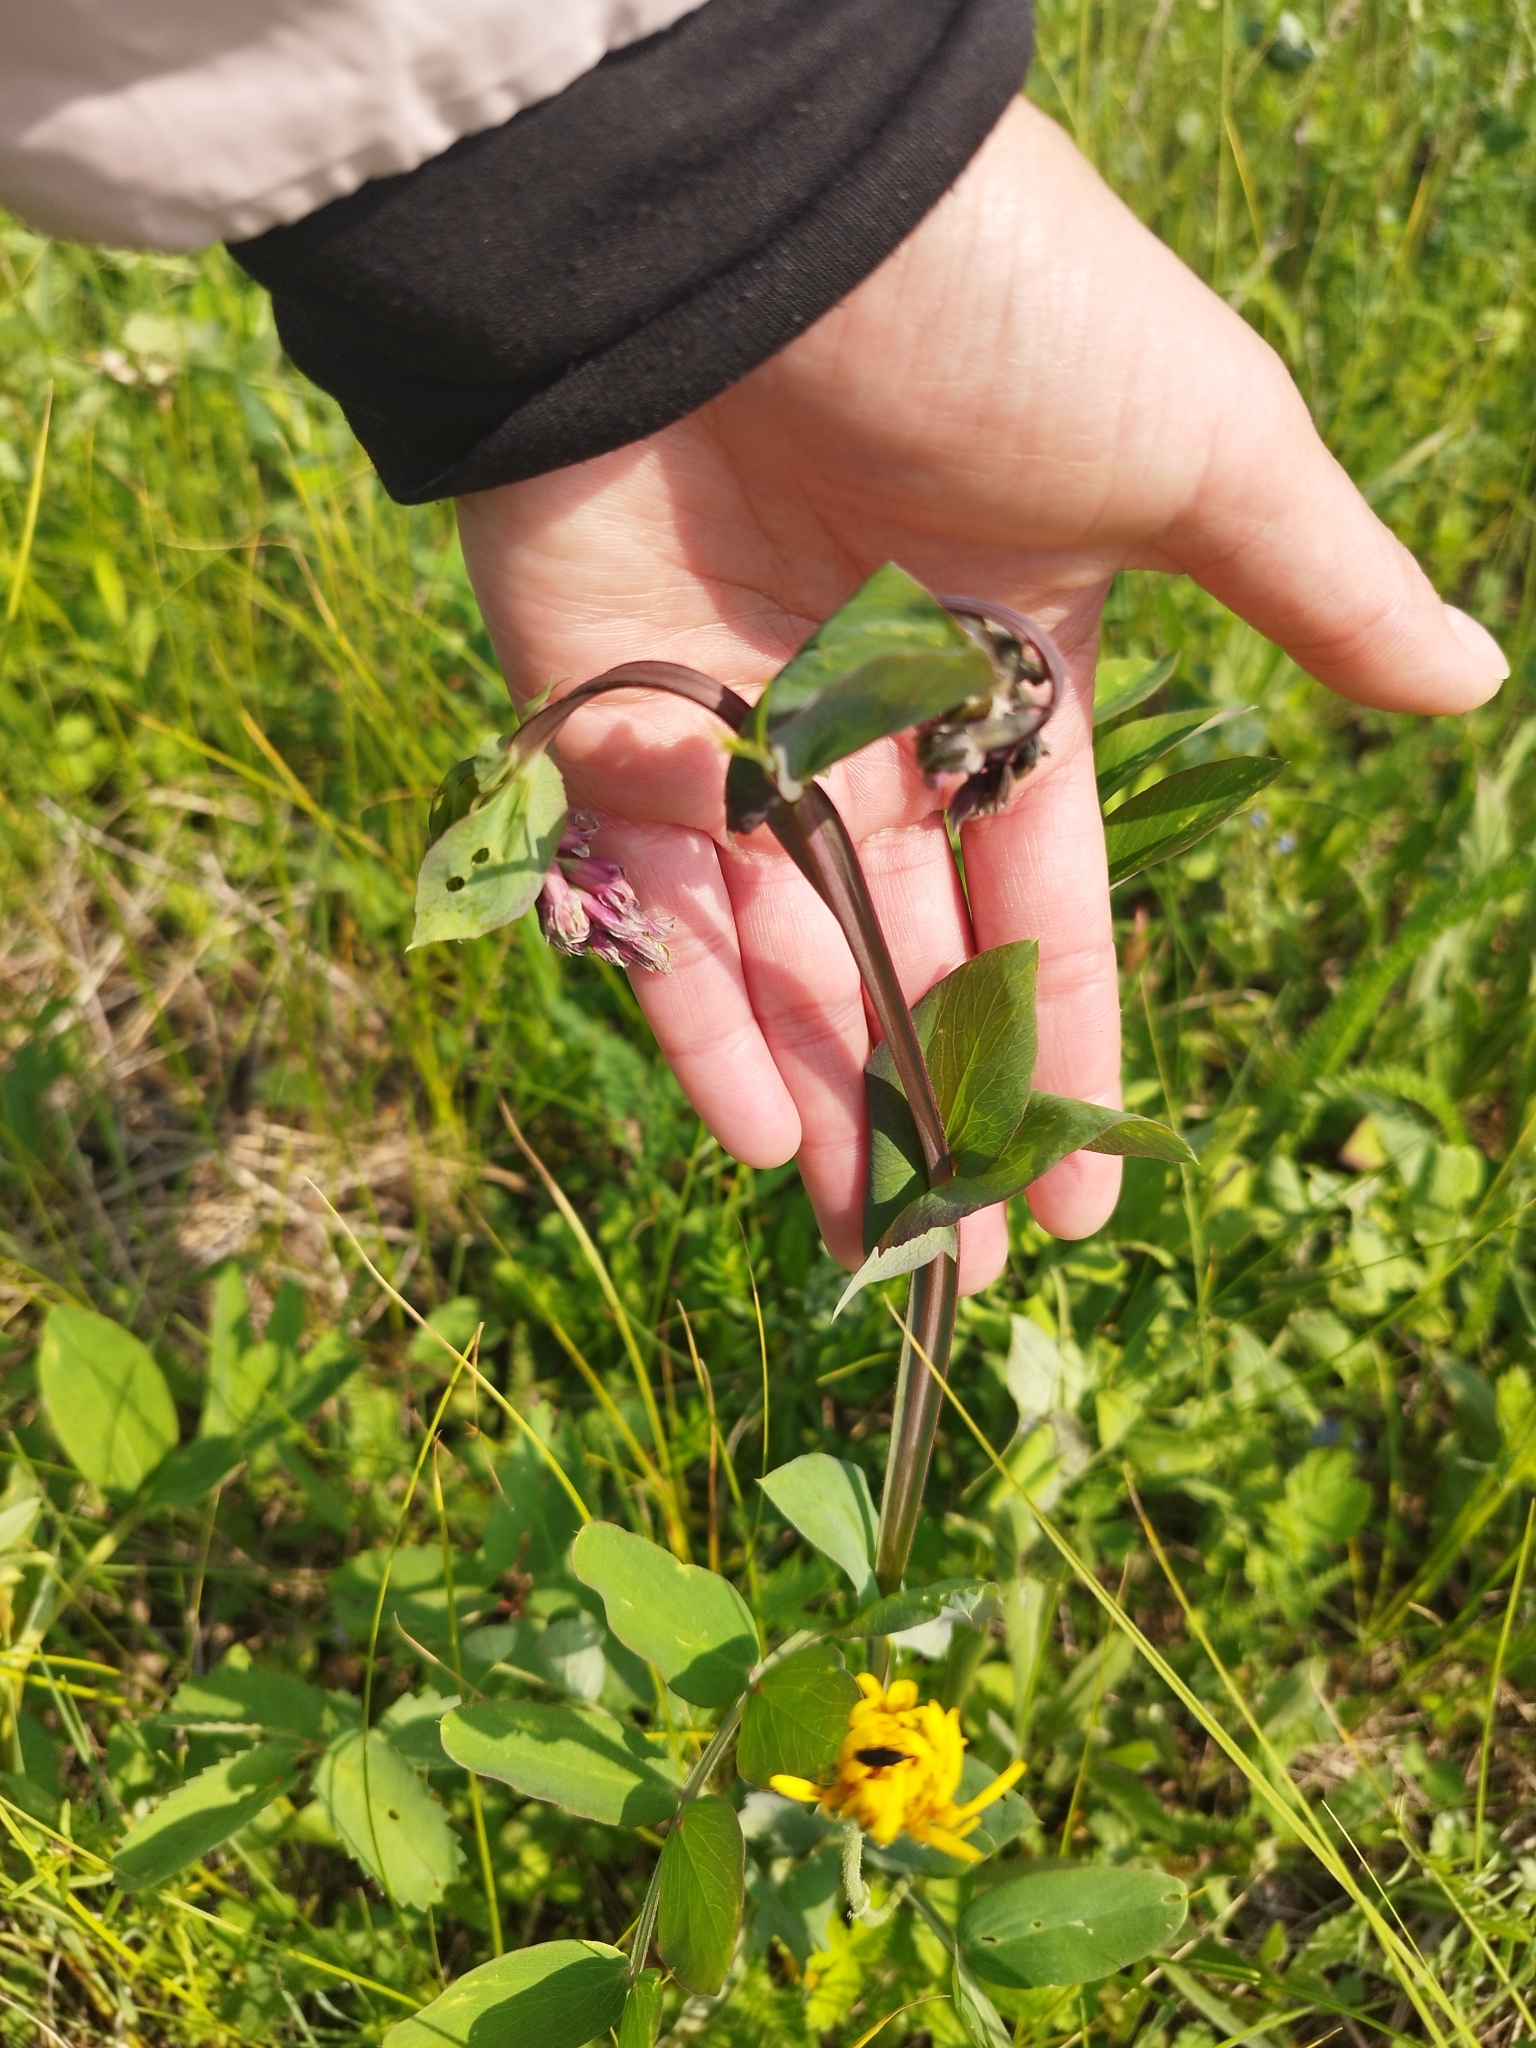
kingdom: Plantae
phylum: Tracheophyta
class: Magnoliopsida
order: Fabales
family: Fabaceae
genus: Lathyrus
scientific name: Lathyrus pisiformis
